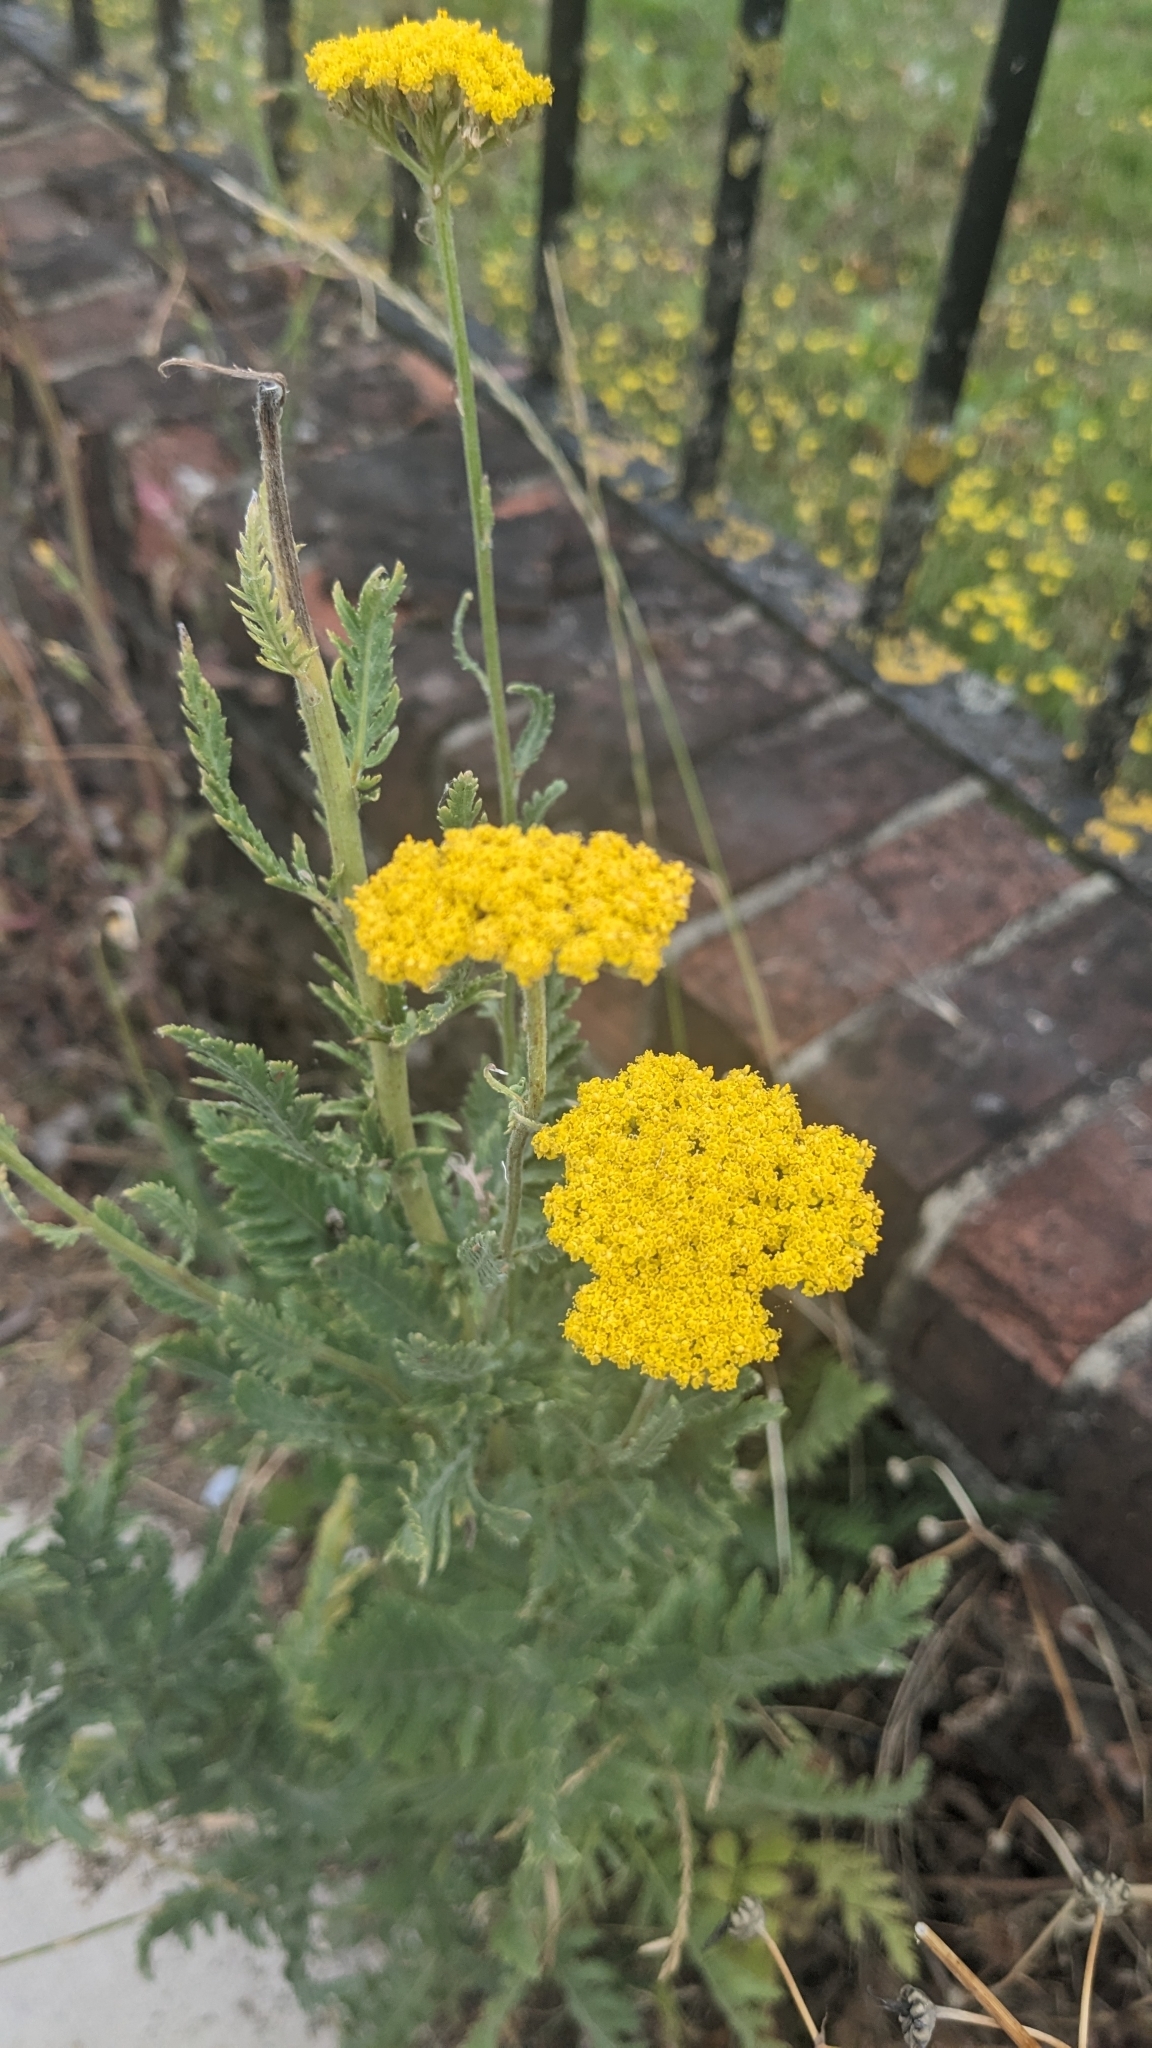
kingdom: Plantae
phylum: Tracheophyta
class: Magnoliopsida
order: Asterales
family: Asteraceae
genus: Achillea
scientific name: Achillea filipendulina
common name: Fernleaf yarrow
